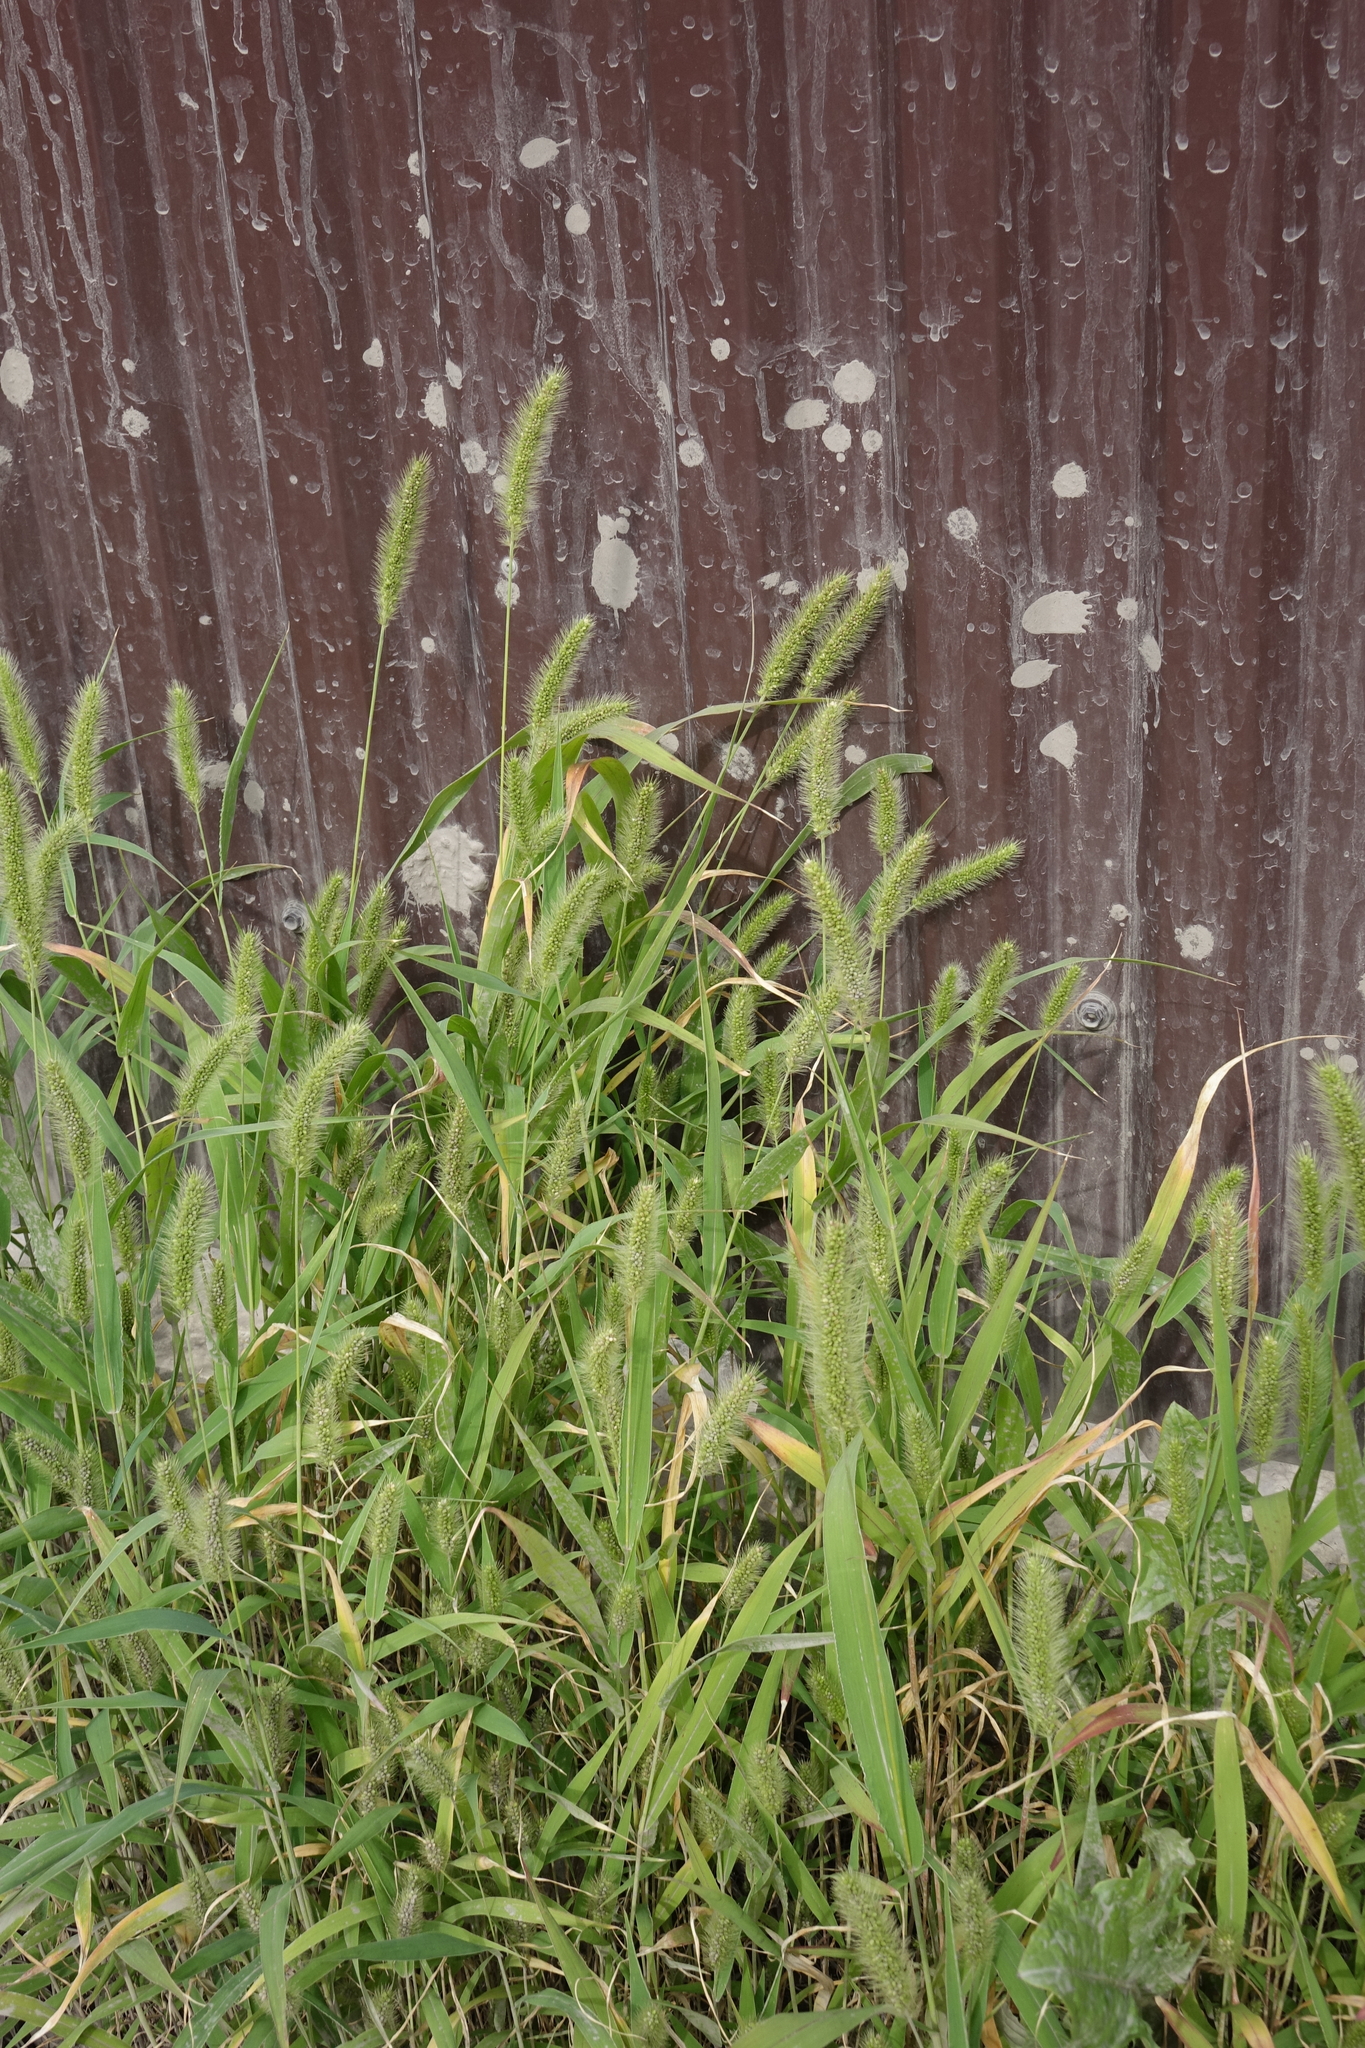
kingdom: Plantae
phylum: Tracheophyta
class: Liliopsida
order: Poales
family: Poaceae
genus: Setaria
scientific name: Setaria viridis
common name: Green bristlegrass
